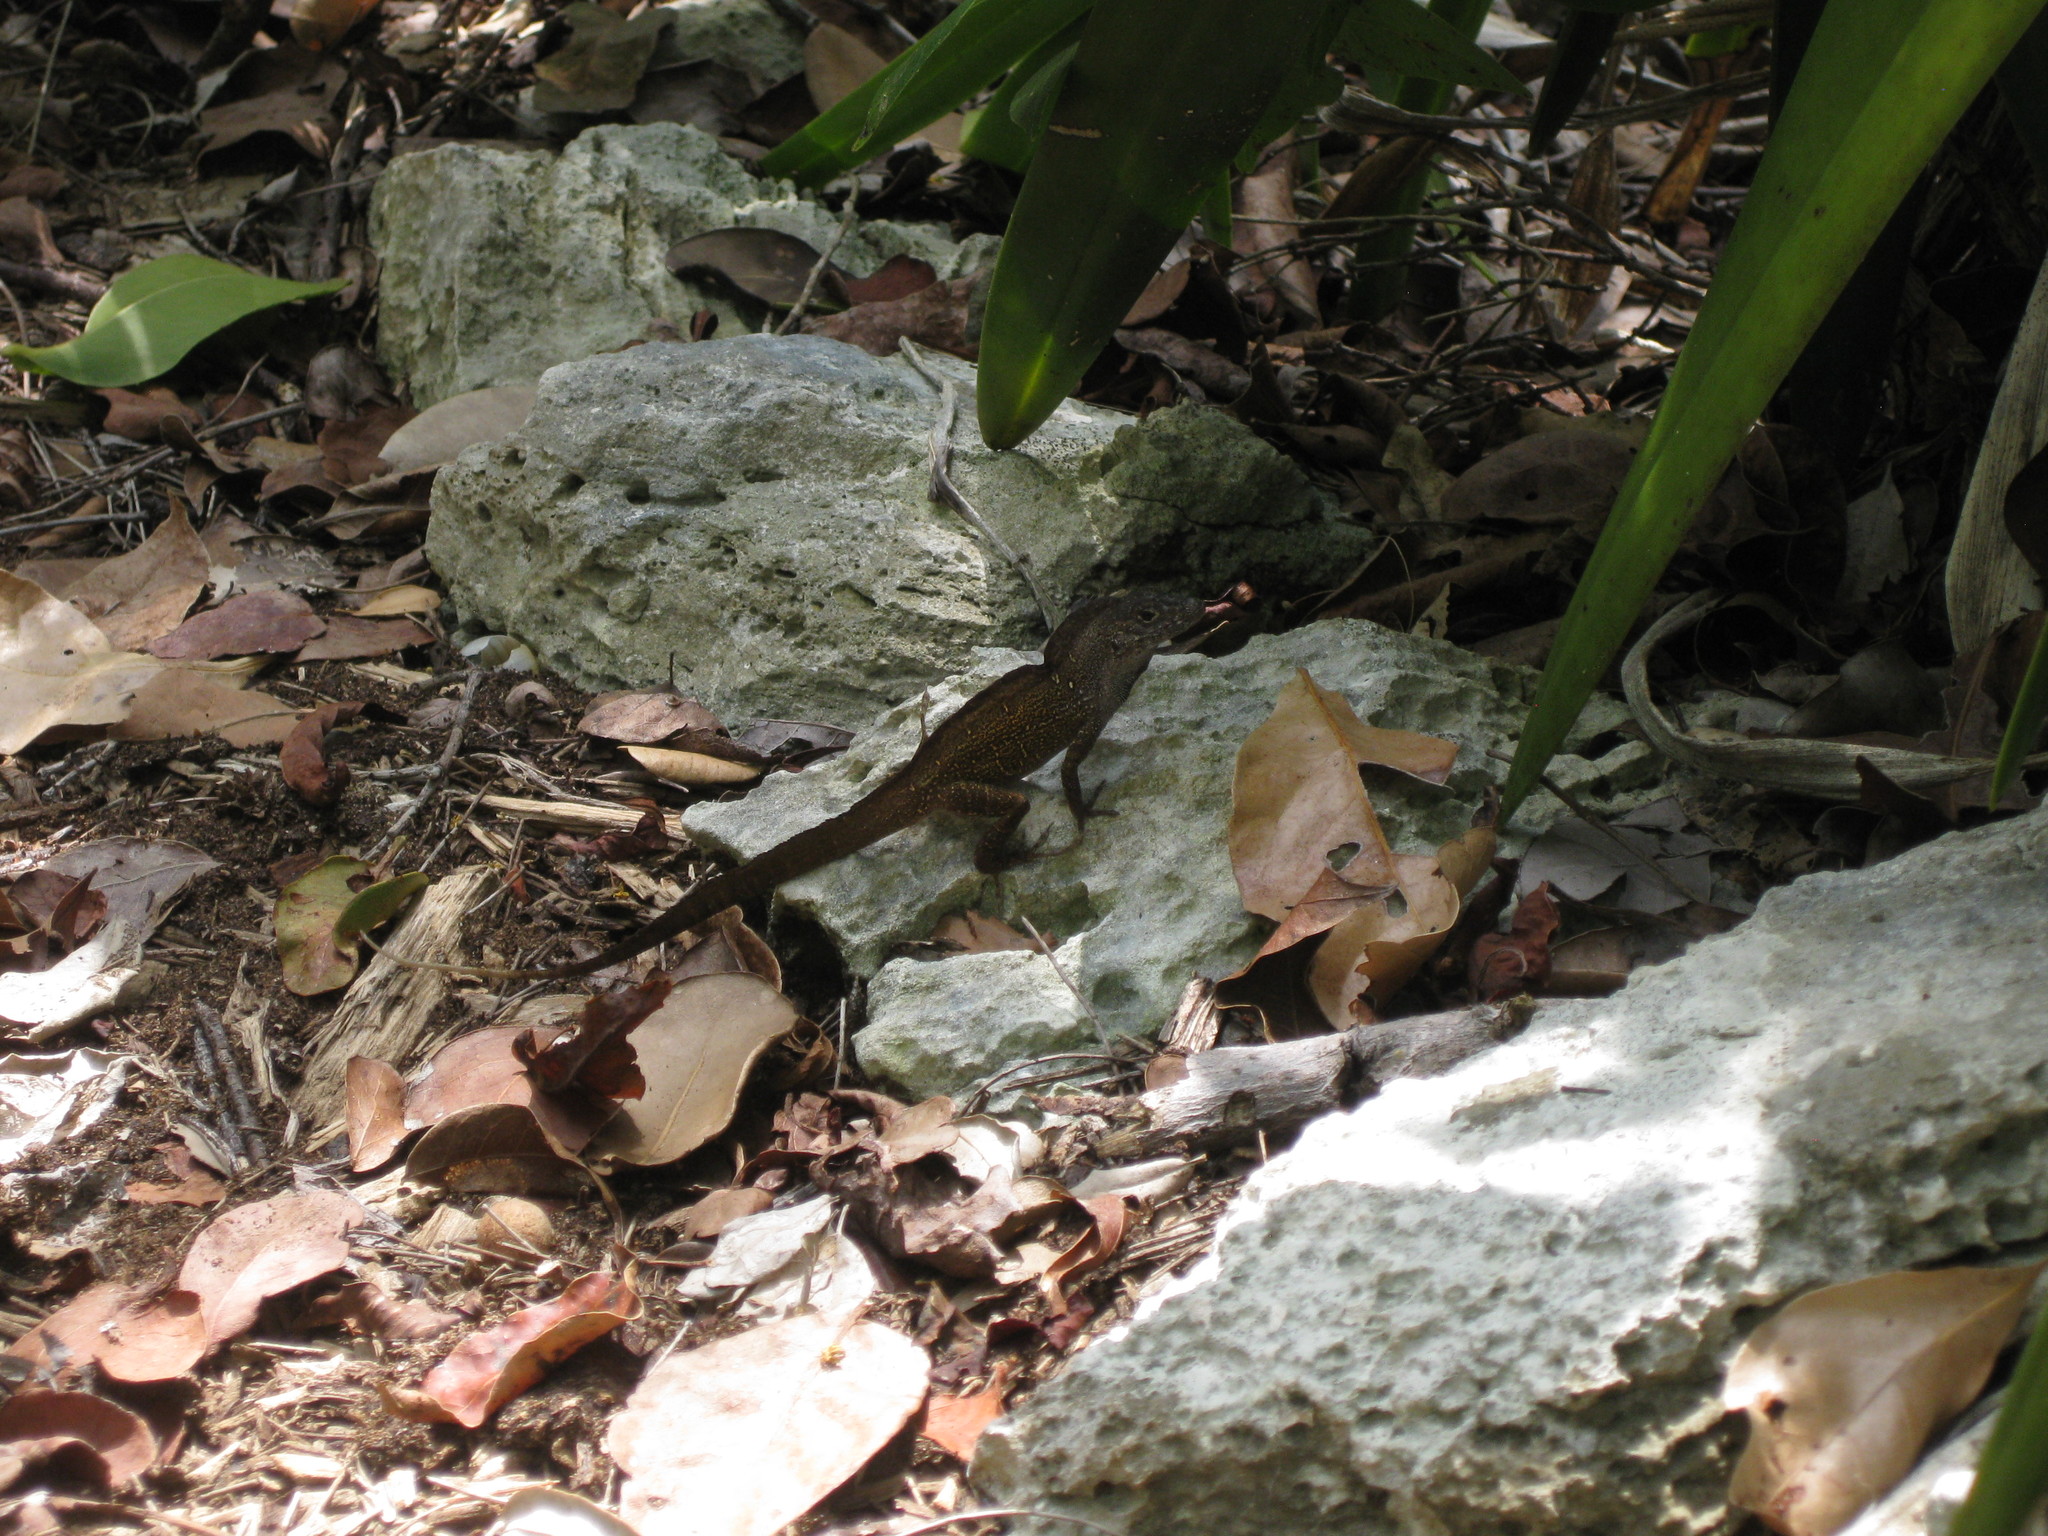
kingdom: Animalia
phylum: Chordata
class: Squamata
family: Dactyloidae
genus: Anolis
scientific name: Anolis sagrei
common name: Brown anole
